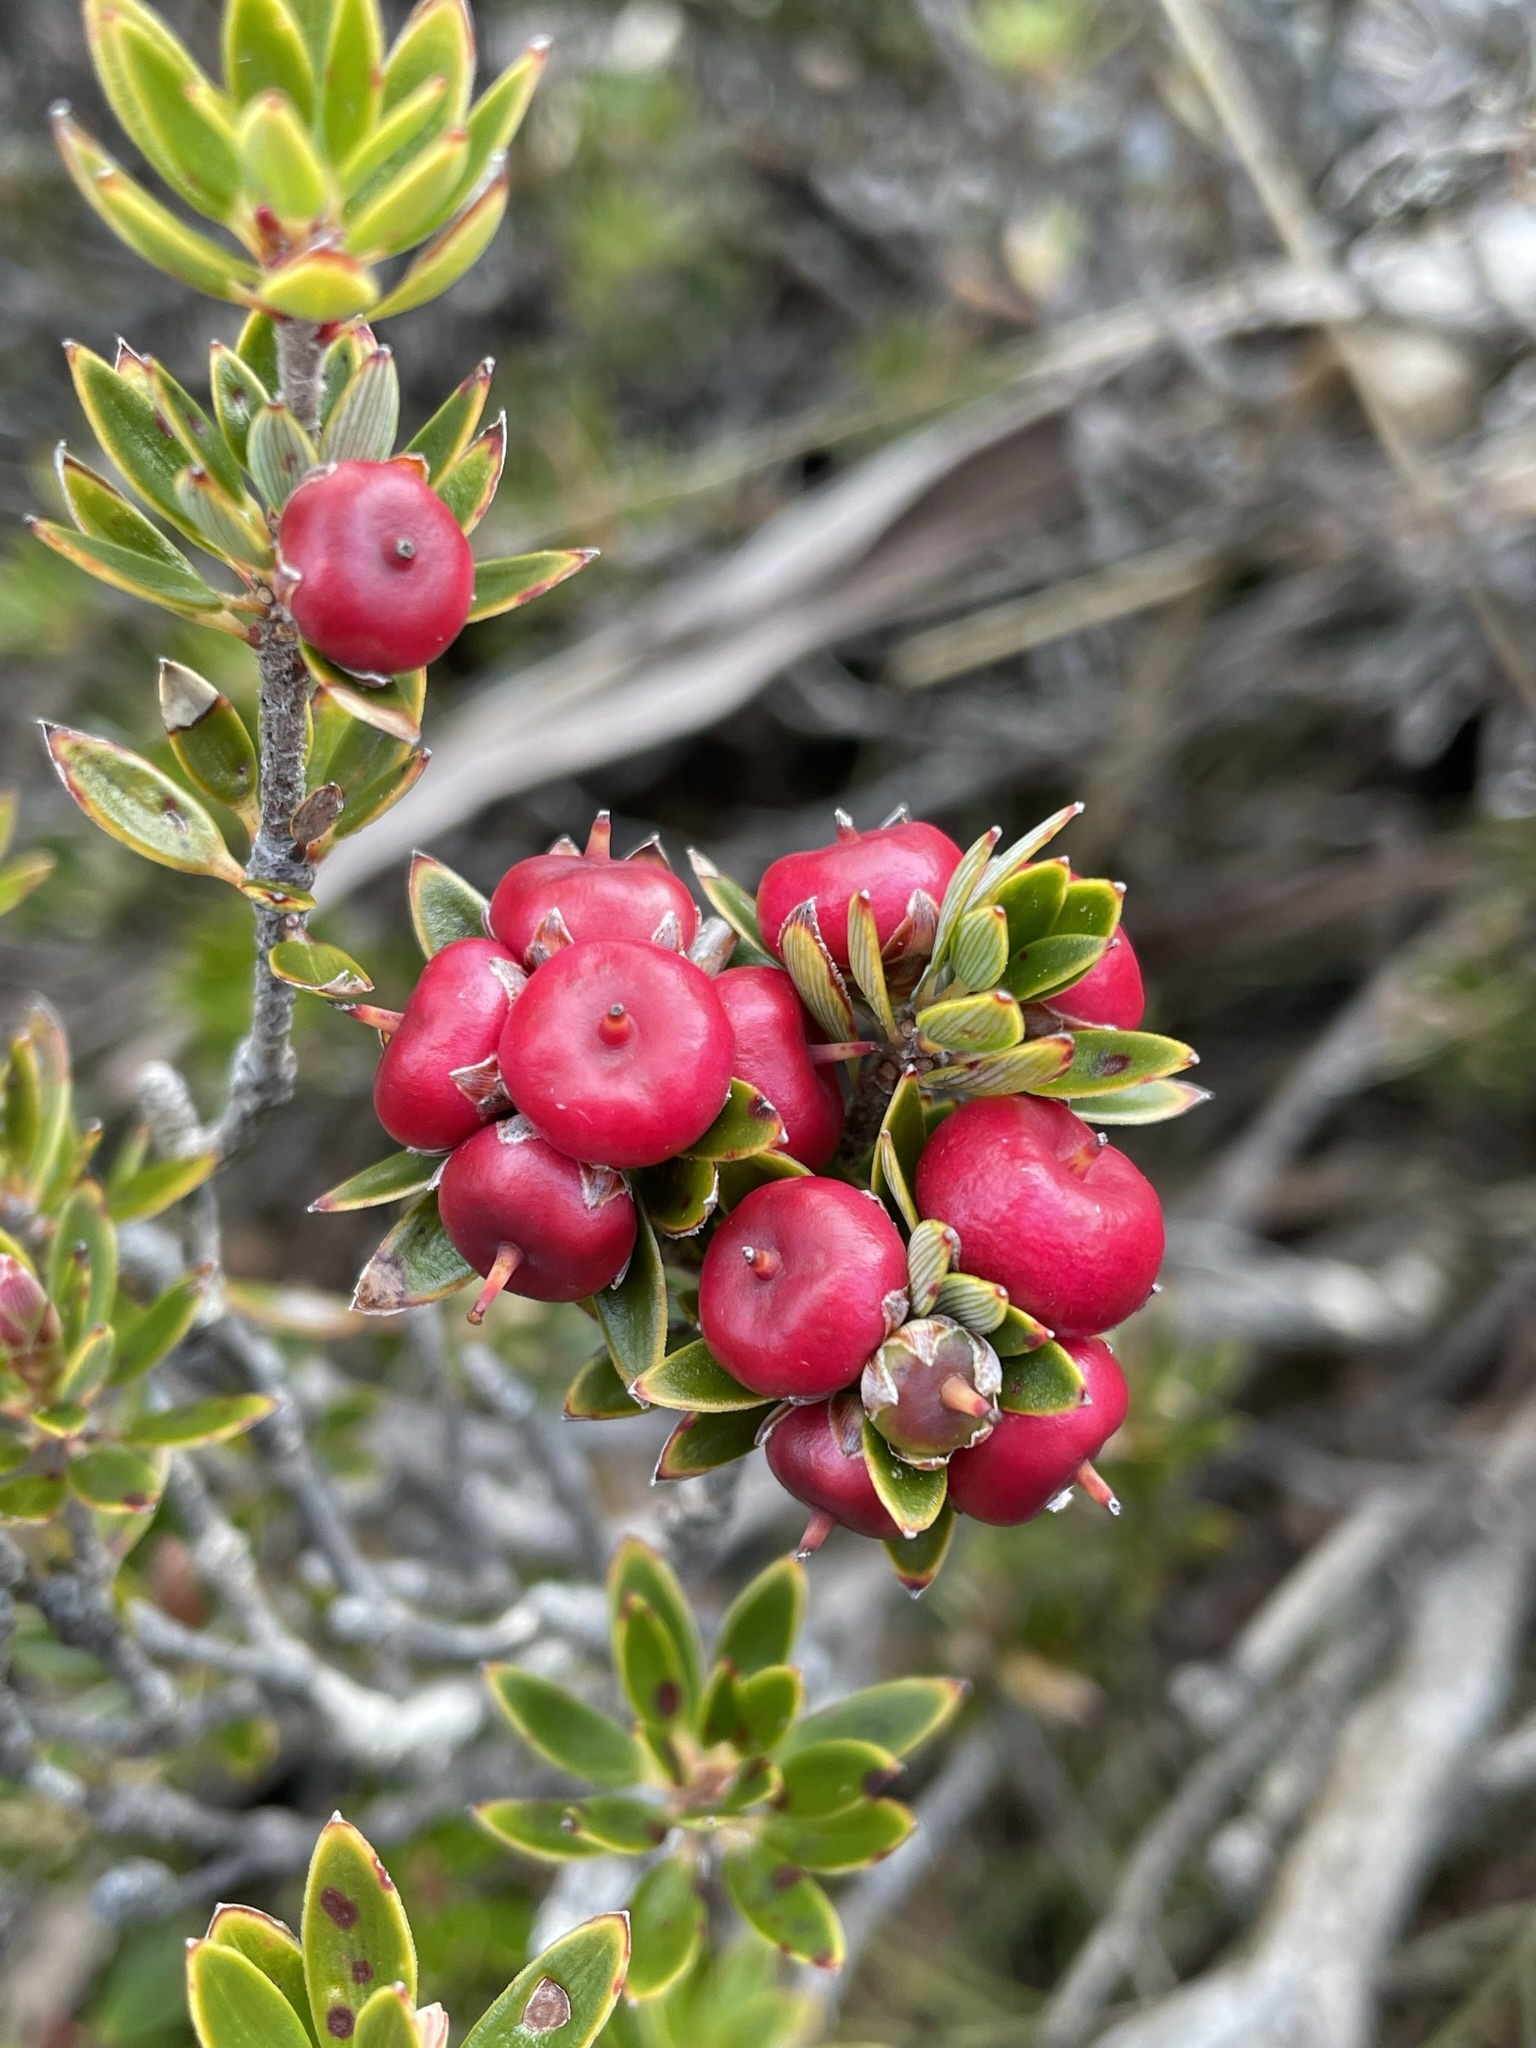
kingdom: Plantae
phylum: Tracheophyta
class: Magnoliopsida
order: Ericales
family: Ericaceae
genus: Cyathodes
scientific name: Cyathodes straminea
